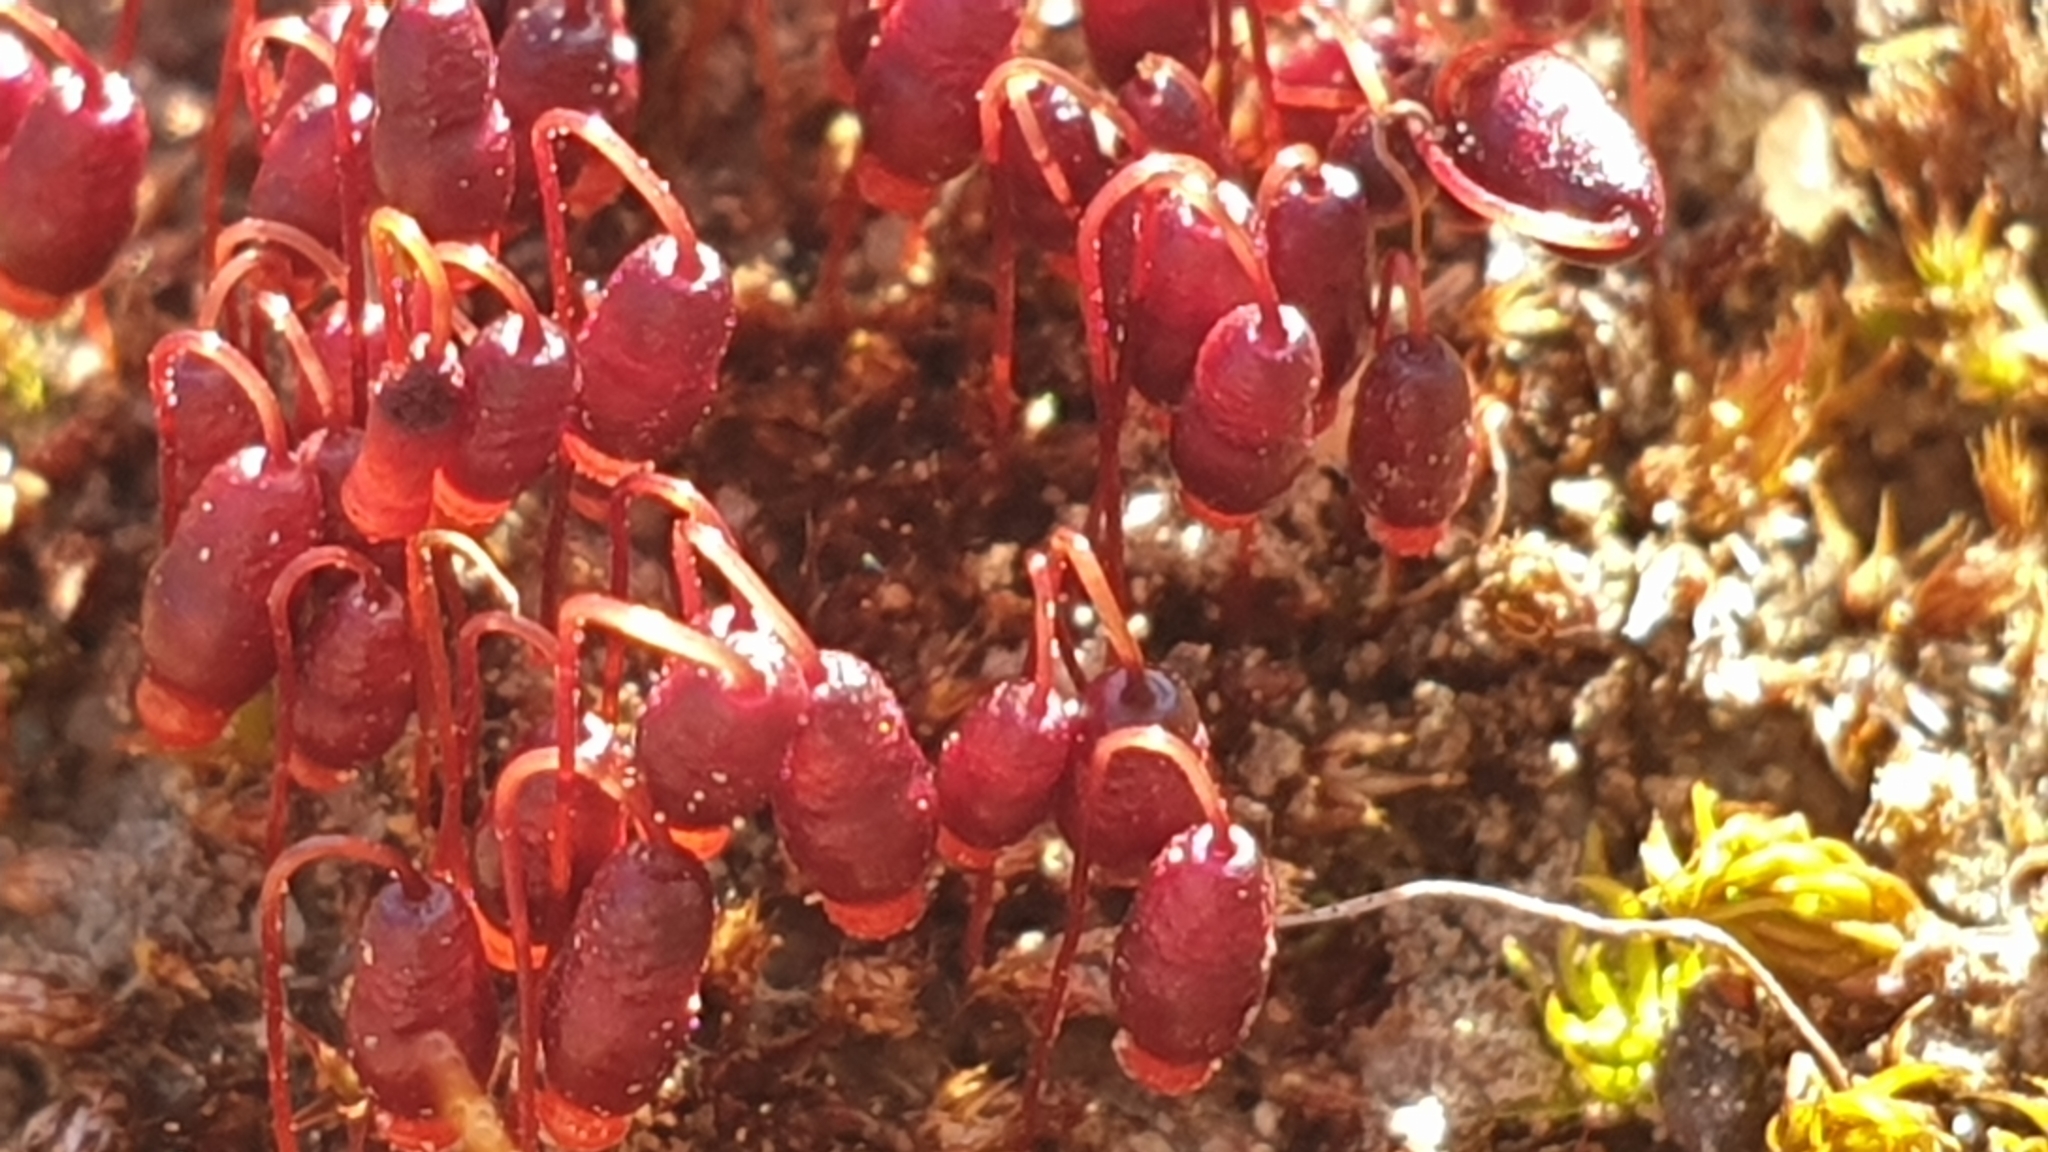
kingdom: Plantae
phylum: Bryophyta
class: Bryopsida
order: Bryales
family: Bryaceae
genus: Gemmabryum
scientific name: Gemmabryum coronatum
